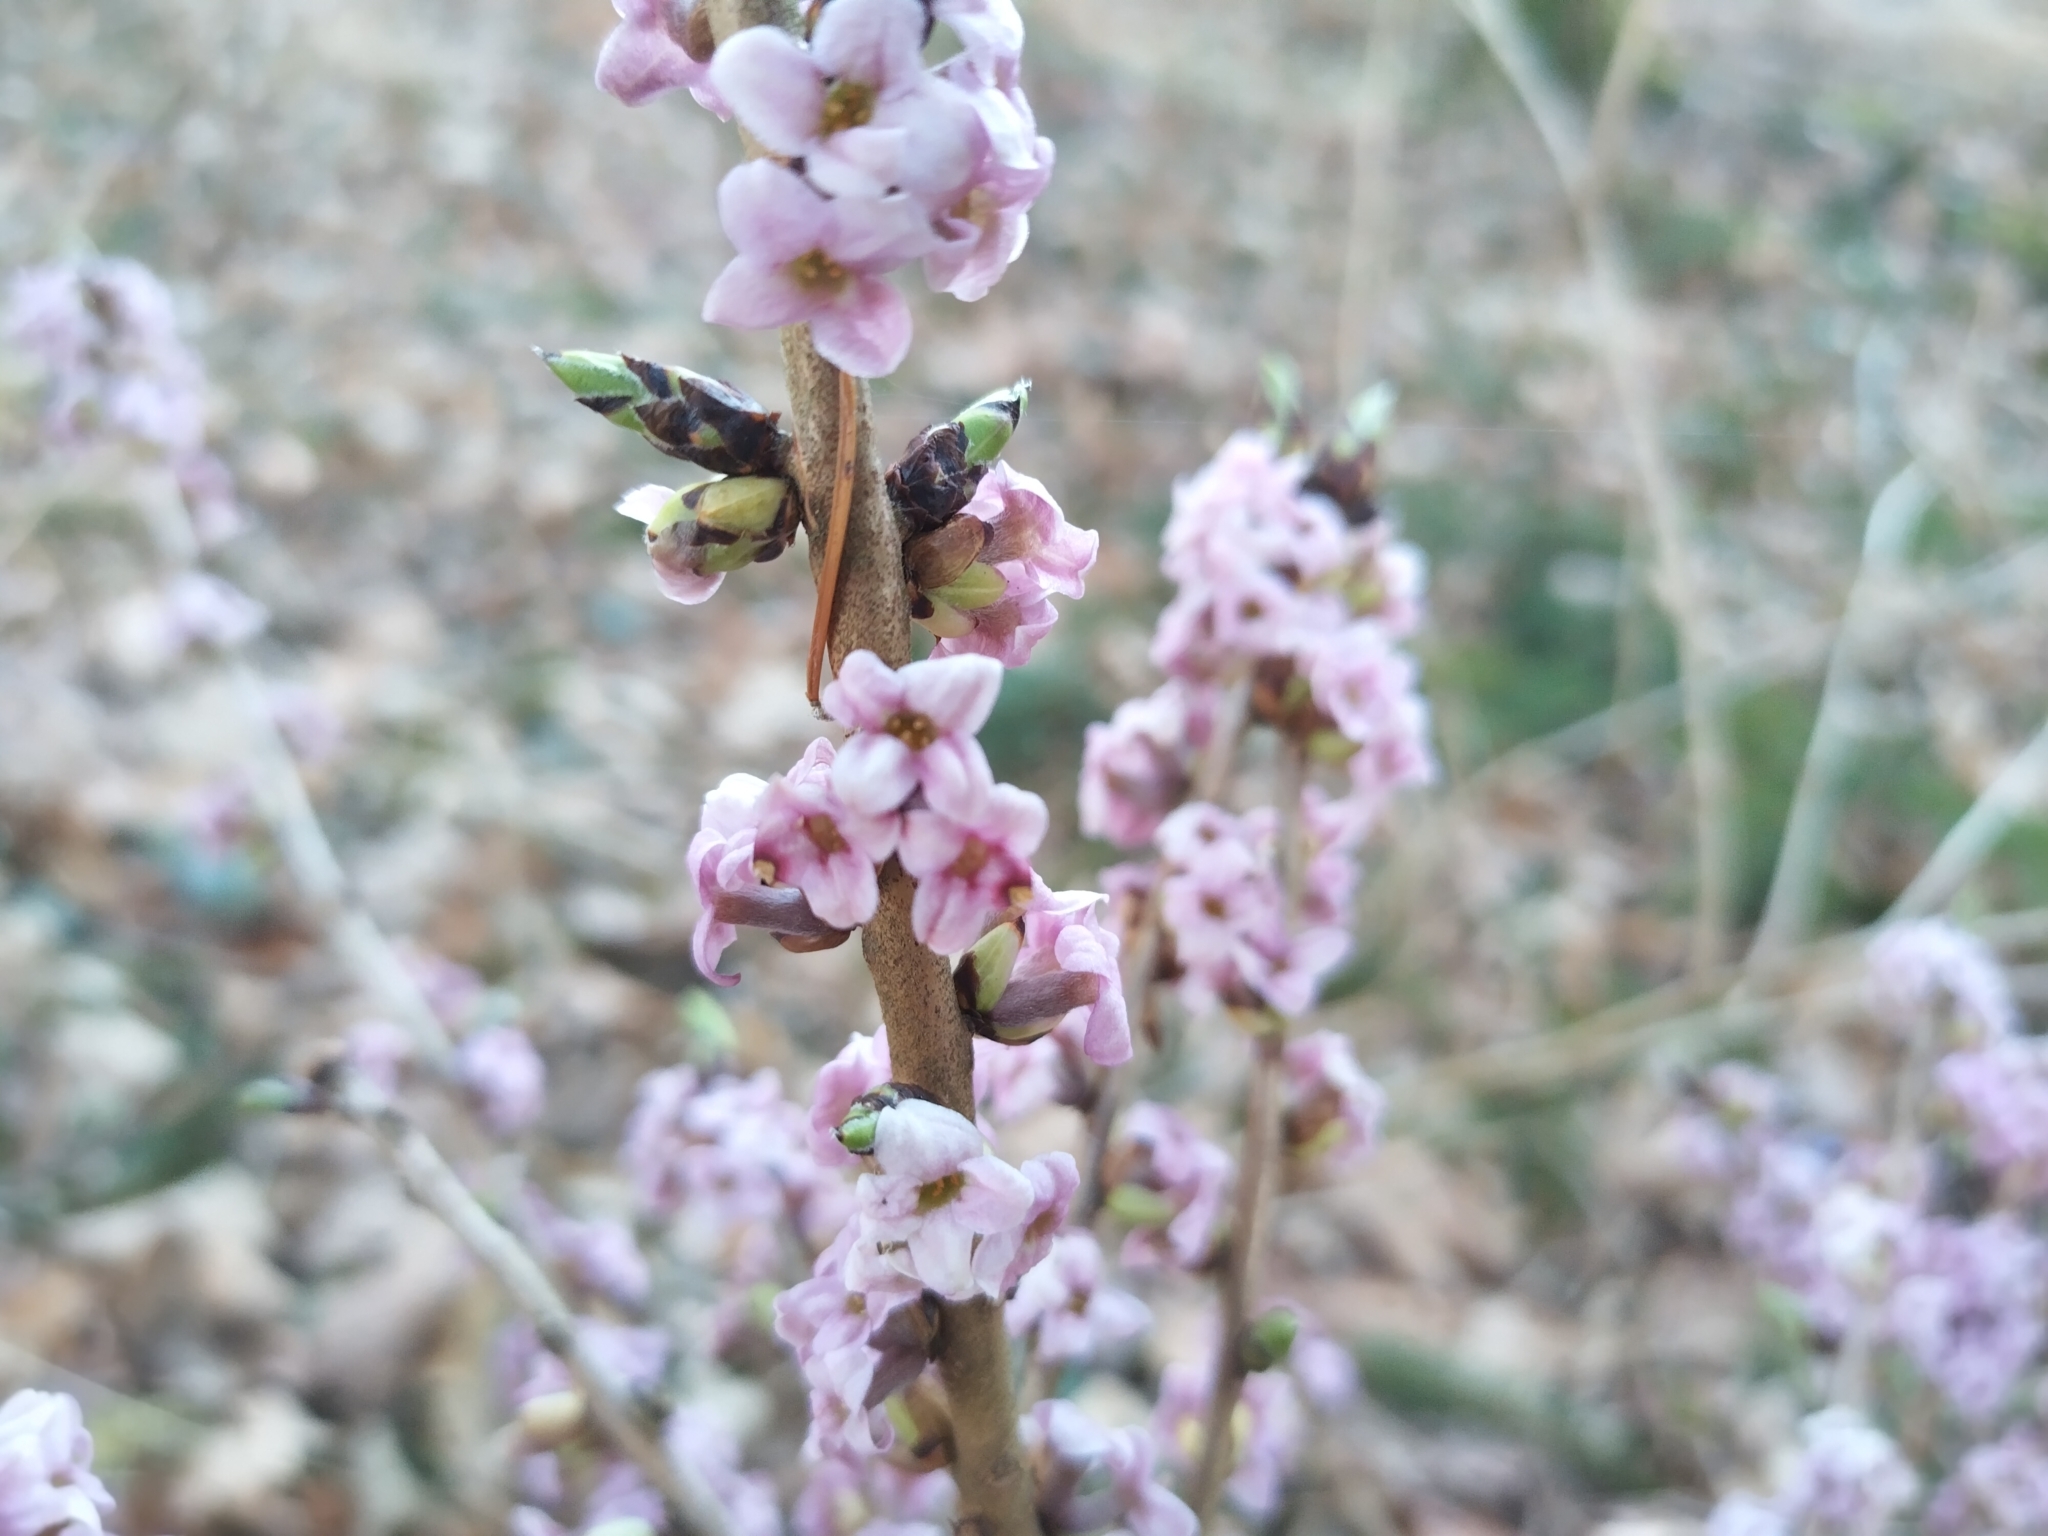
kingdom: Plantae
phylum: Tracheophyta
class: Magnoliopsida
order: Malvales
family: Thymelaeaceae
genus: Daphne
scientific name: Daphne mezereum
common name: Mezereon
